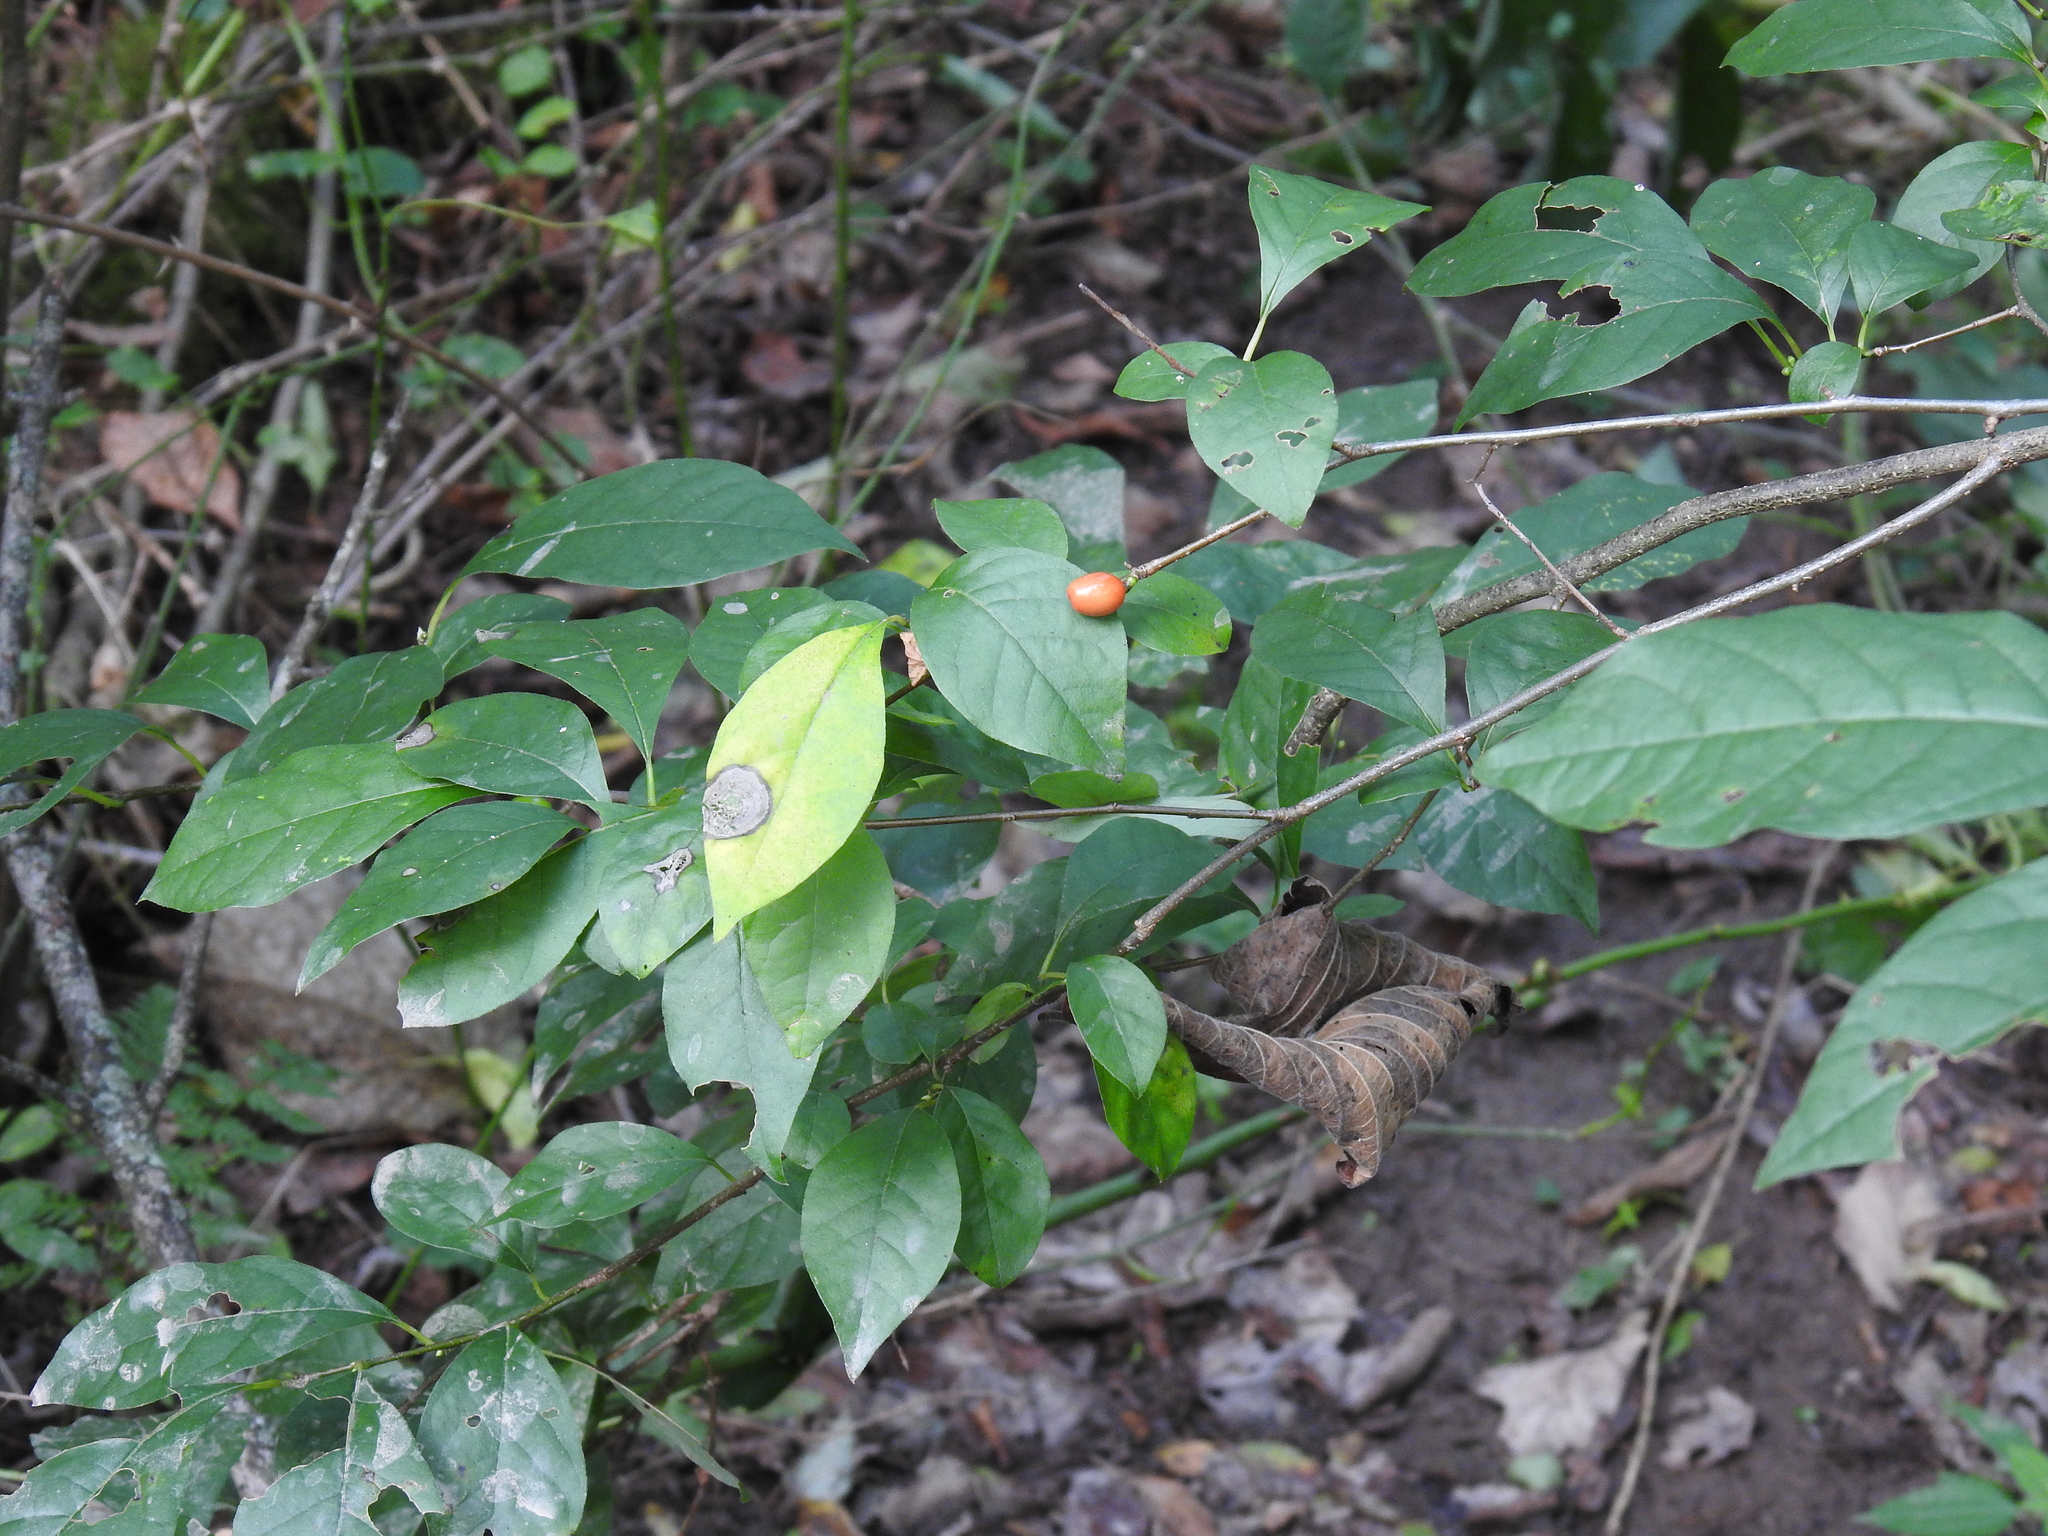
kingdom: Plantae
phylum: Tracheophyta
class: Magnoliopsida
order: Laurales
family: Lauraceae
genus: Lindera
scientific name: Lindera benzoin
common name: Spicebush
